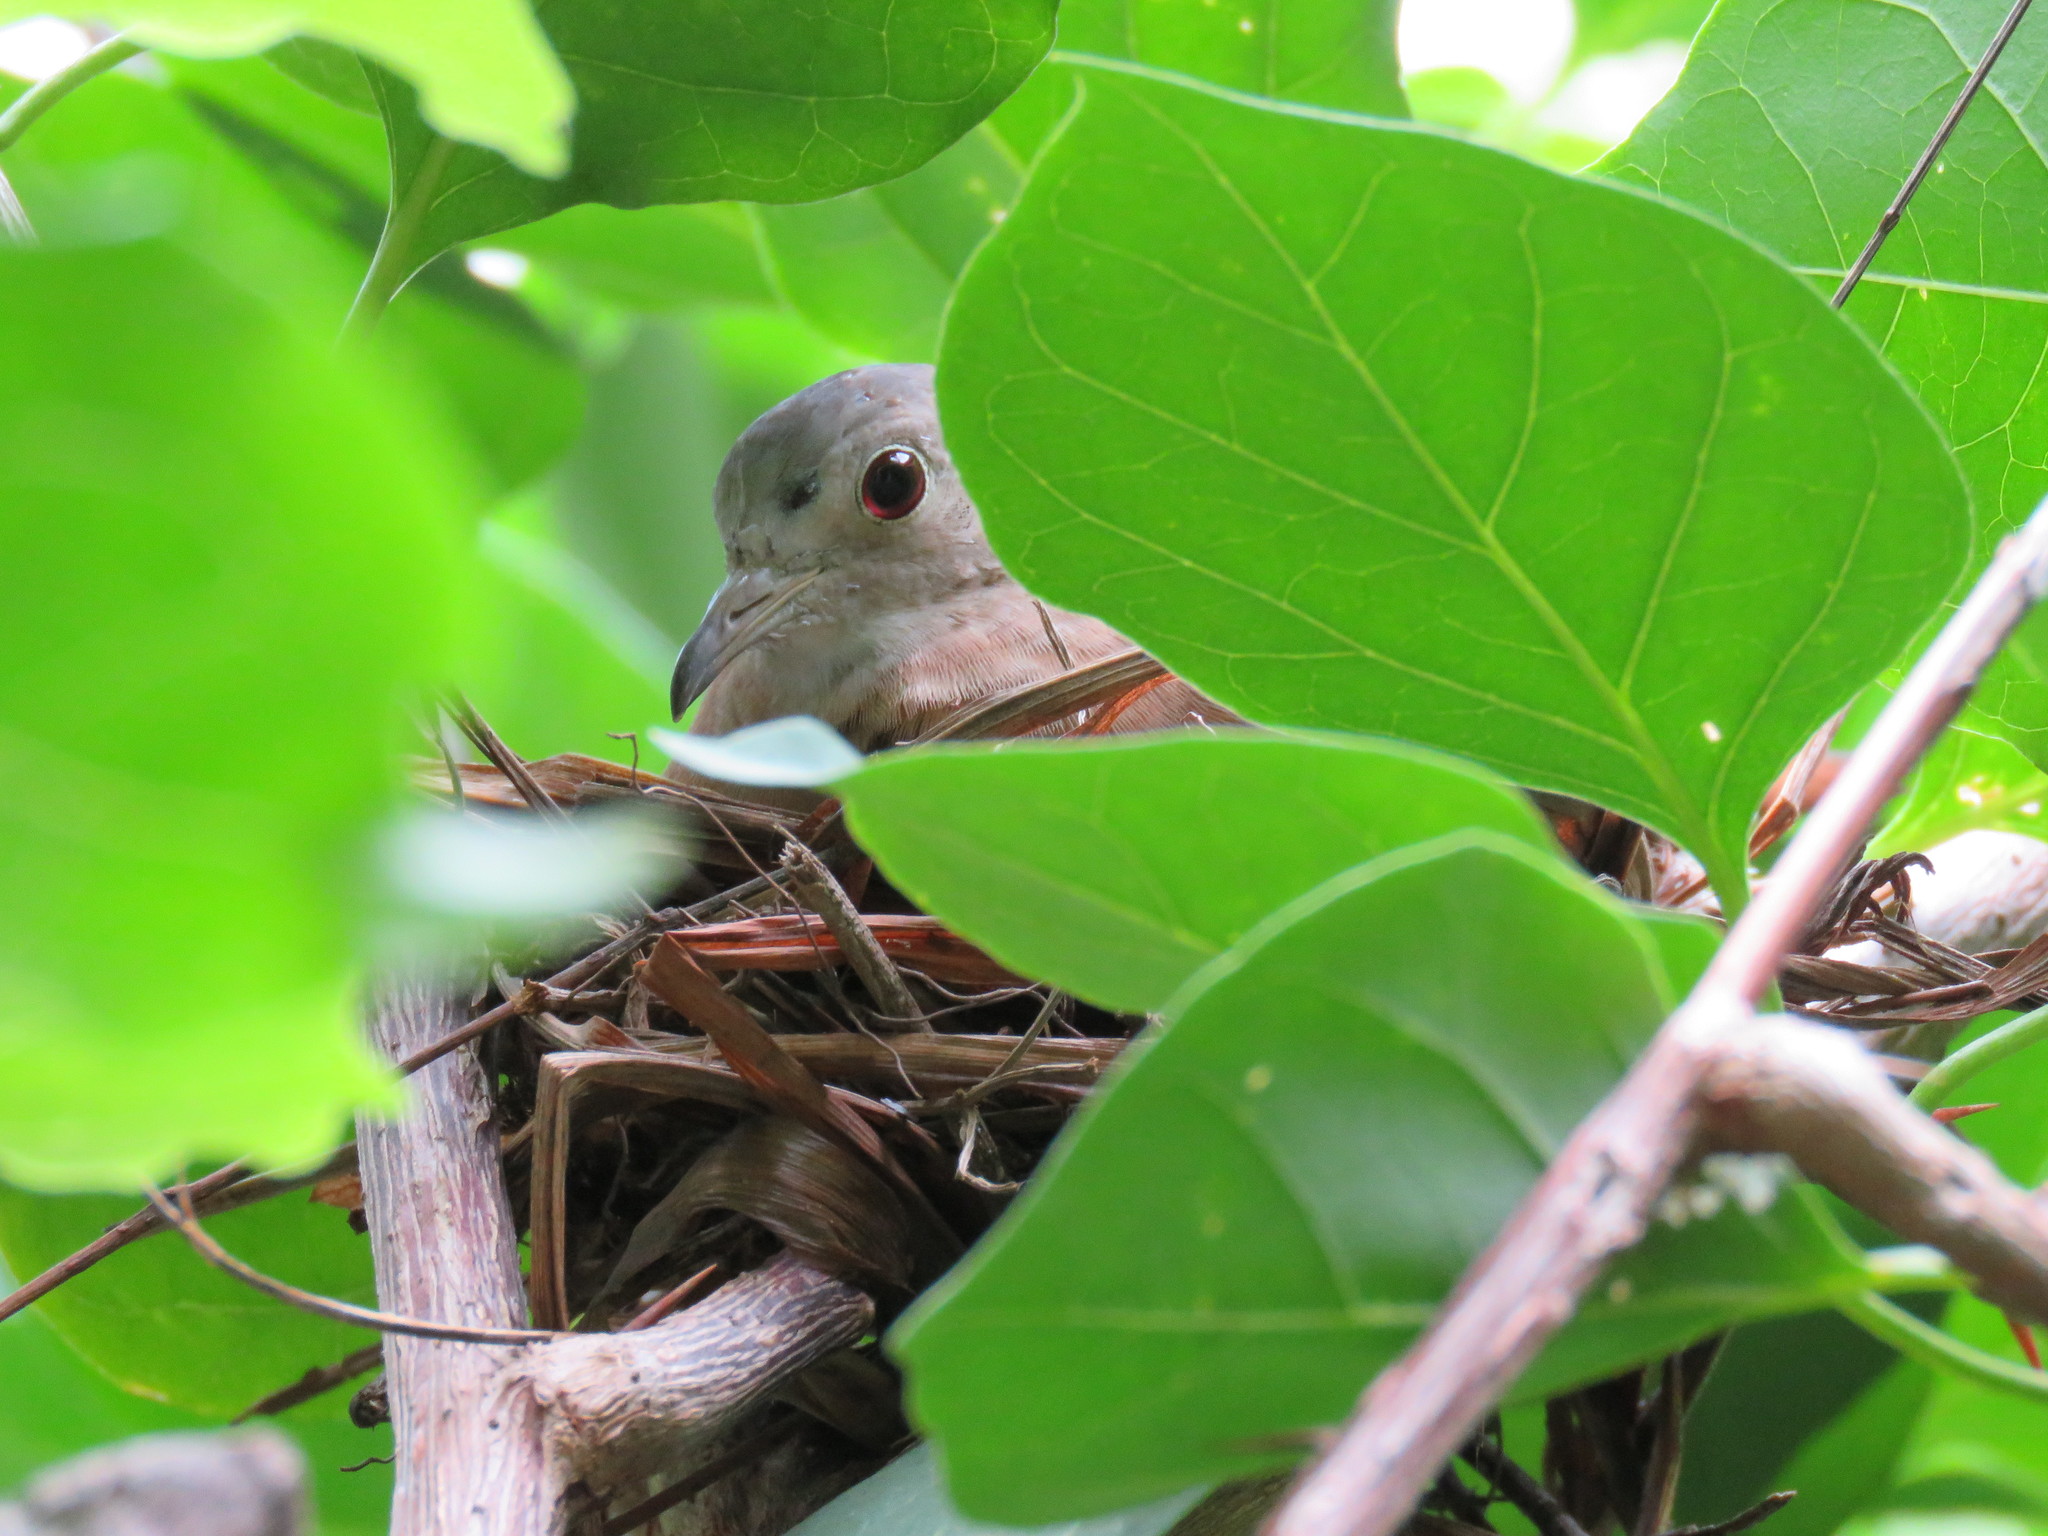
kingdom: Animalia
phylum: Chordata
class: Aves
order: Columbiformes
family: Columbidae
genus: Columbina
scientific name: Columbina talpacoti
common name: Ruddy ground dove
